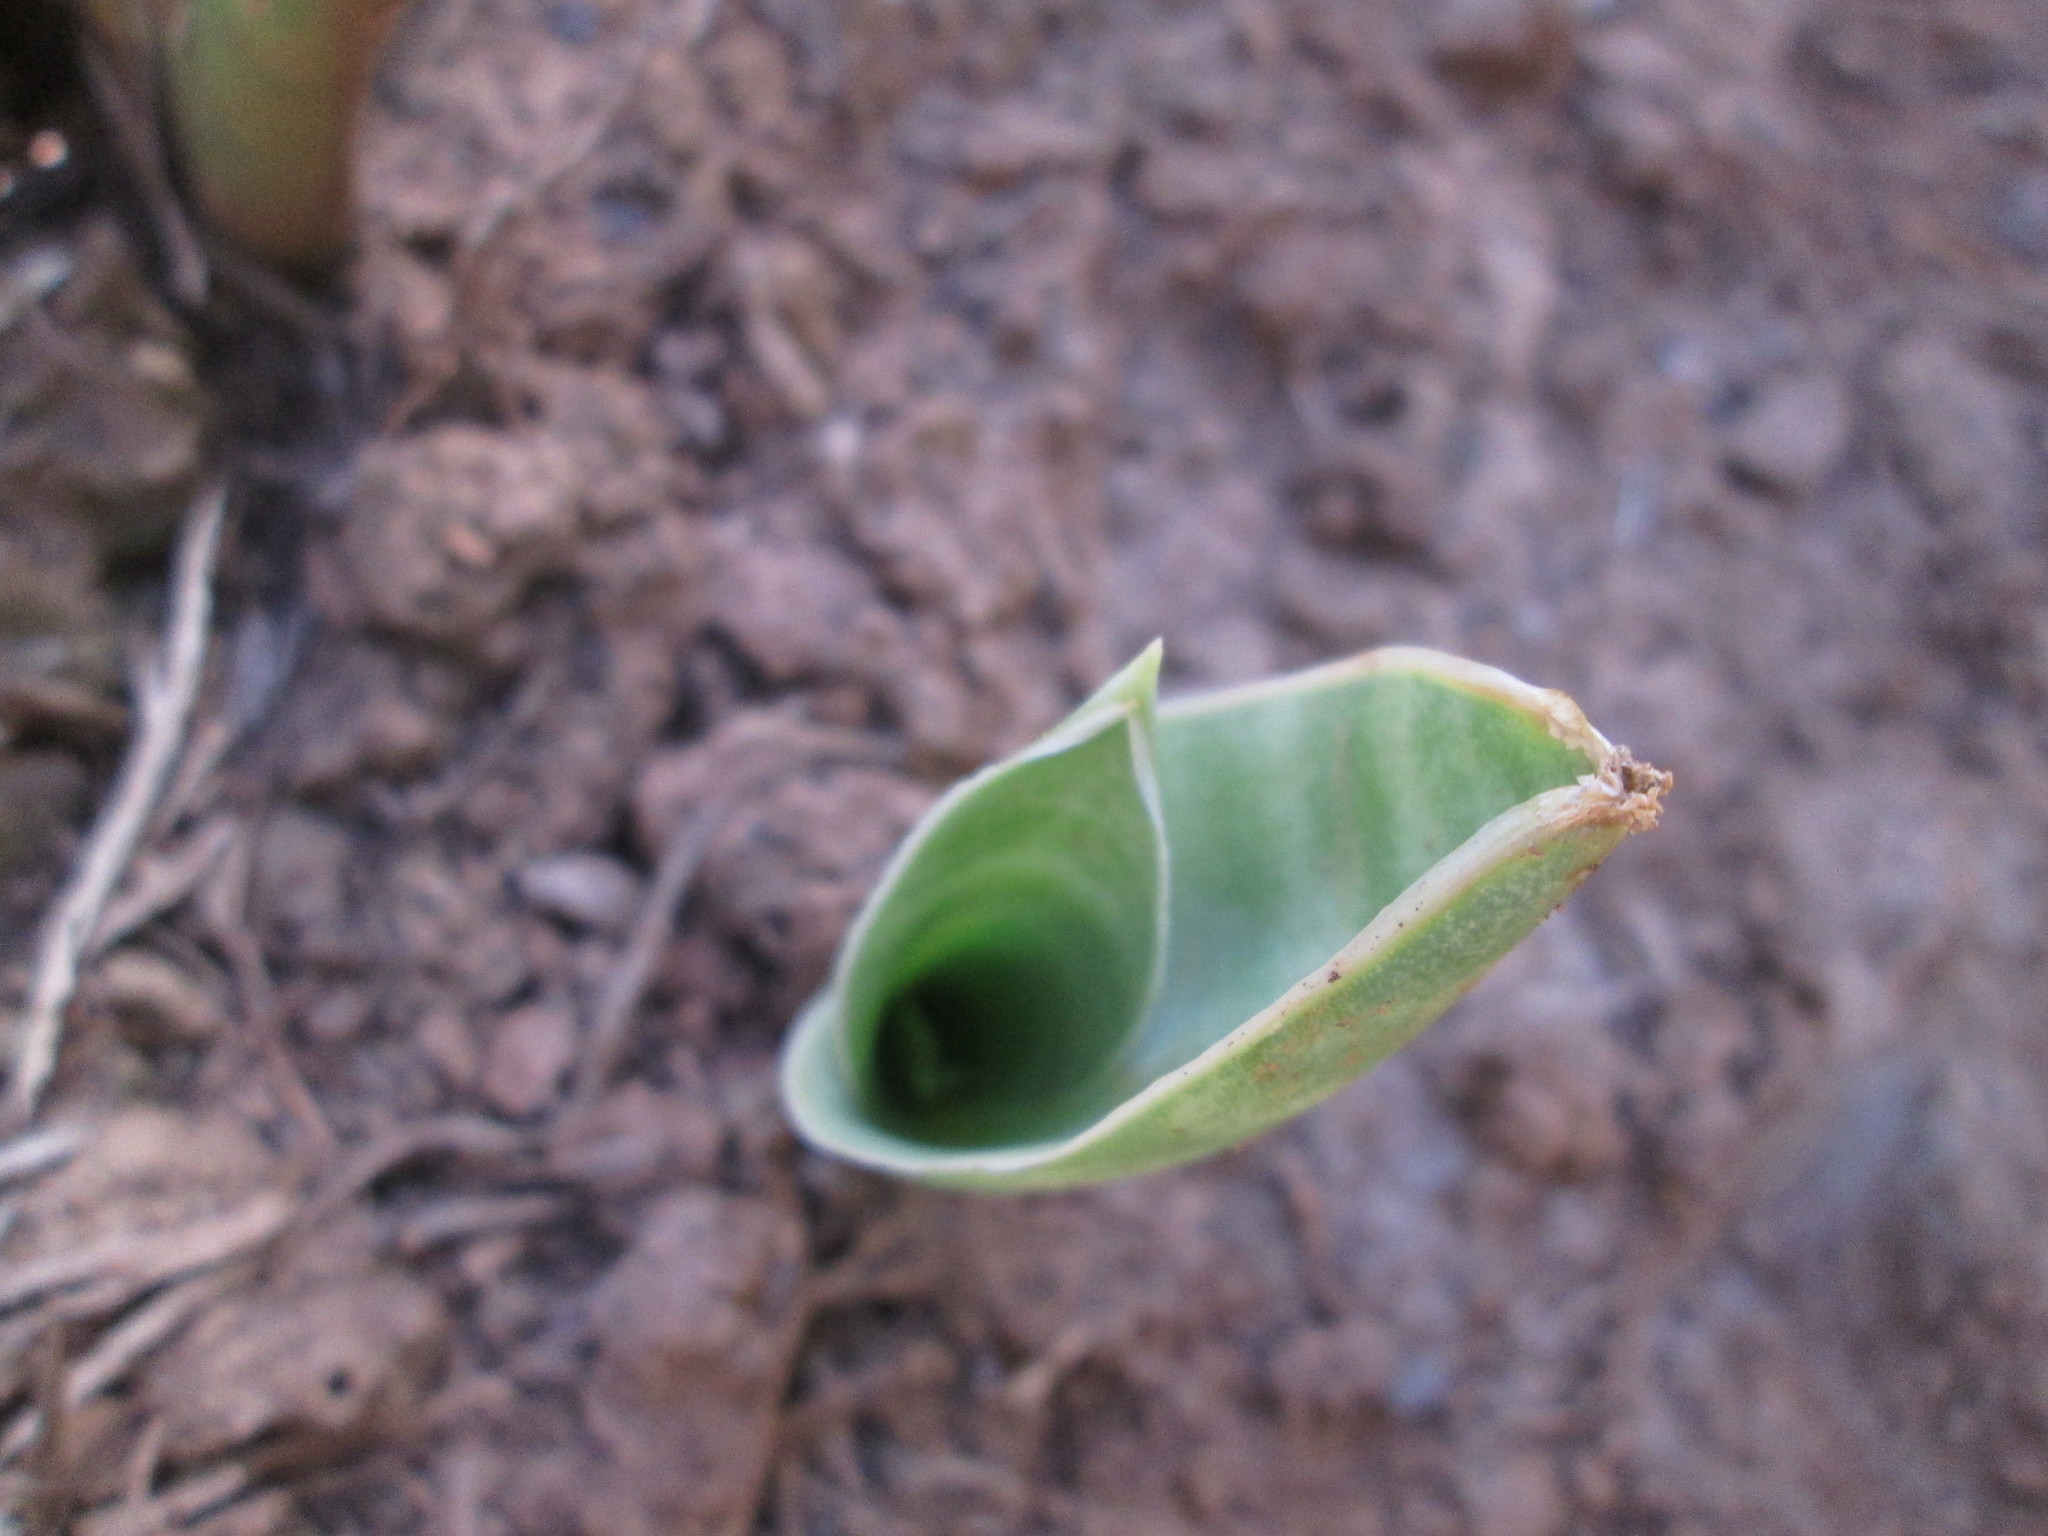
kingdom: Plantae
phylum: Tracheophyta
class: Liliopsida
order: Asparagales
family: Asparagaceae
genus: Dracaena
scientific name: Dracaena hyacinthoides
